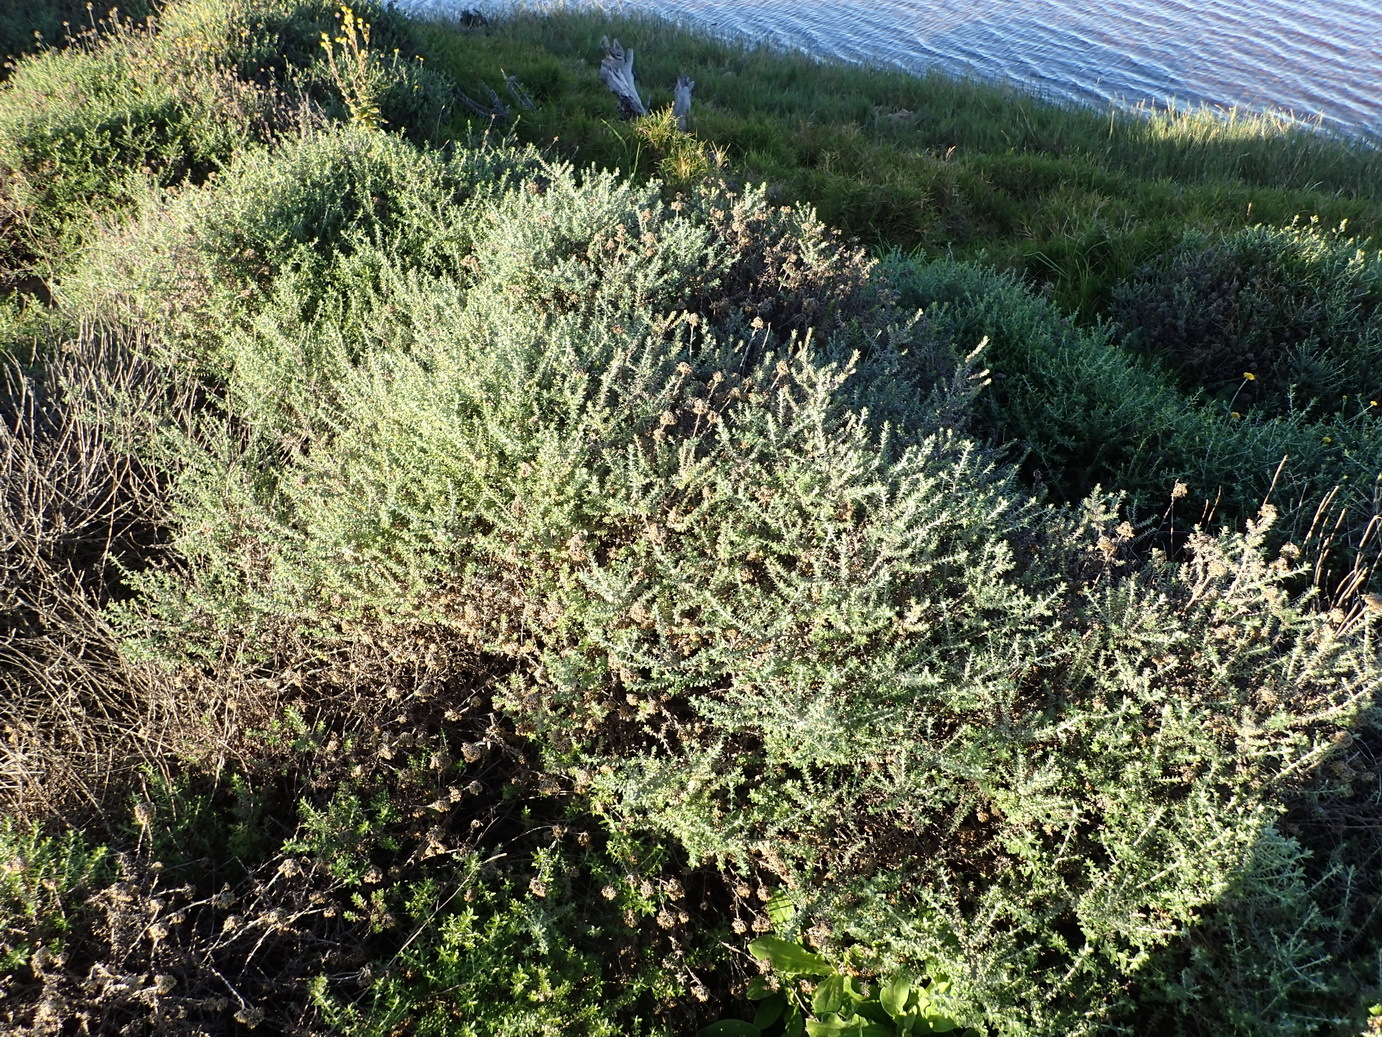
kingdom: Plantae
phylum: Tracheophyta
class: Magnoliopsida
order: Asterales
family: Asteraceae
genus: Helichrysum
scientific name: Helichrysum cymosum
